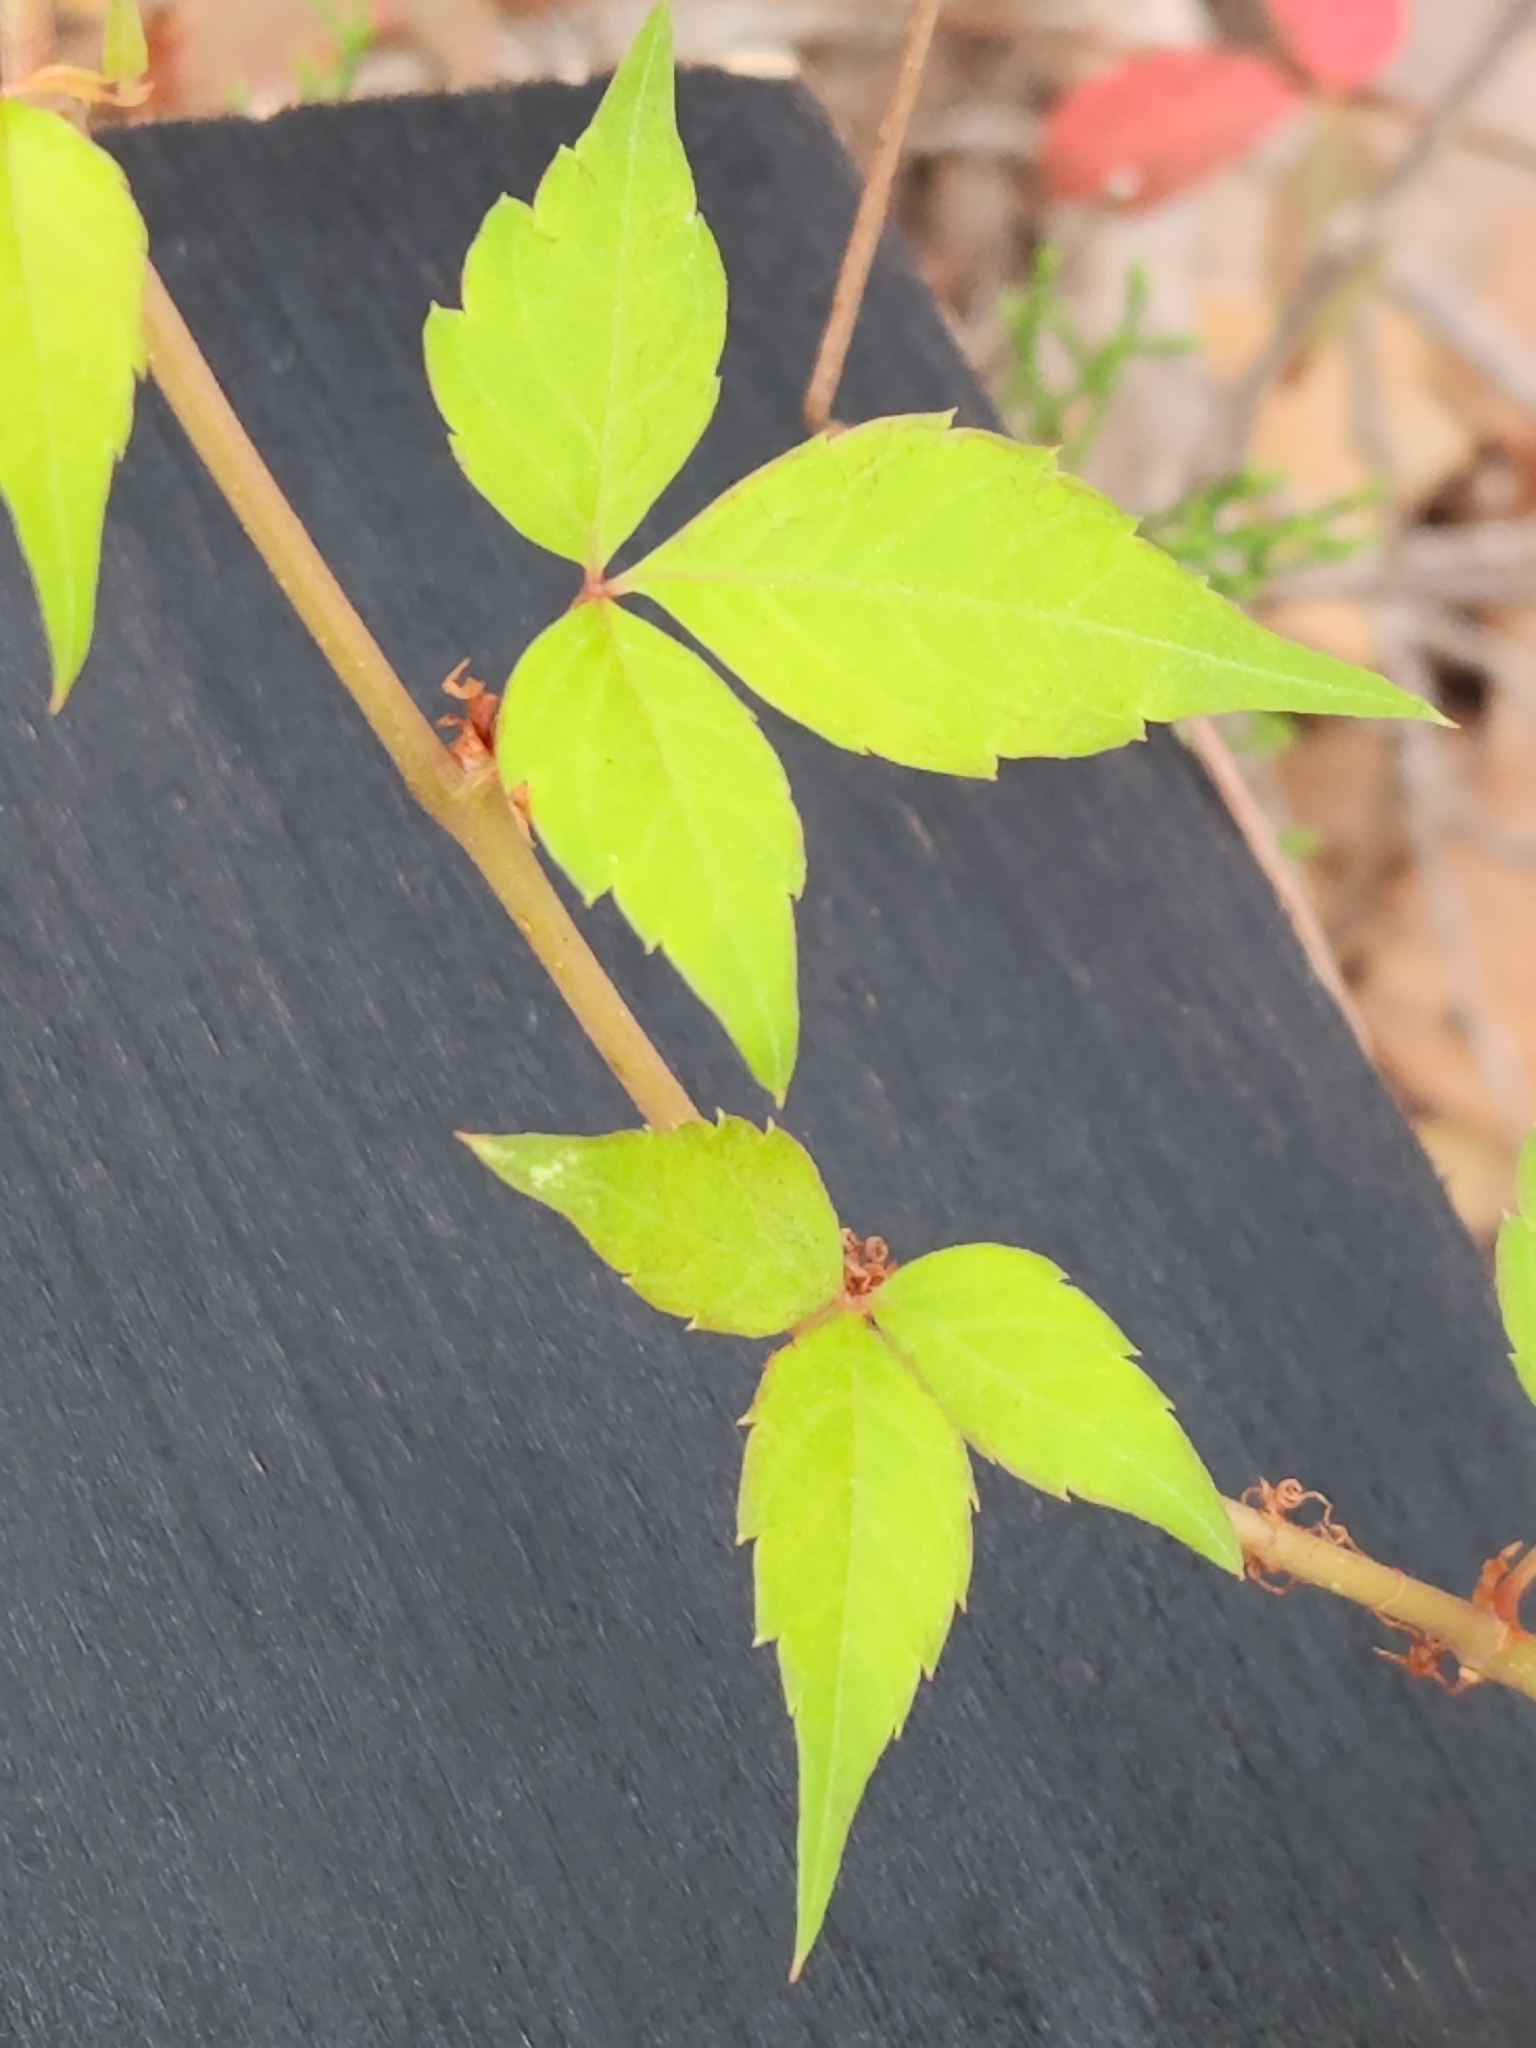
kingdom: Plantae
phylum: Tracheophyta
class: Magnoliopsida
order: Vitales
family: Vitaceae
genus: Parthenocissus
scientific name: Parthenocissus quinquefolia
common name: Virginia-creeper
